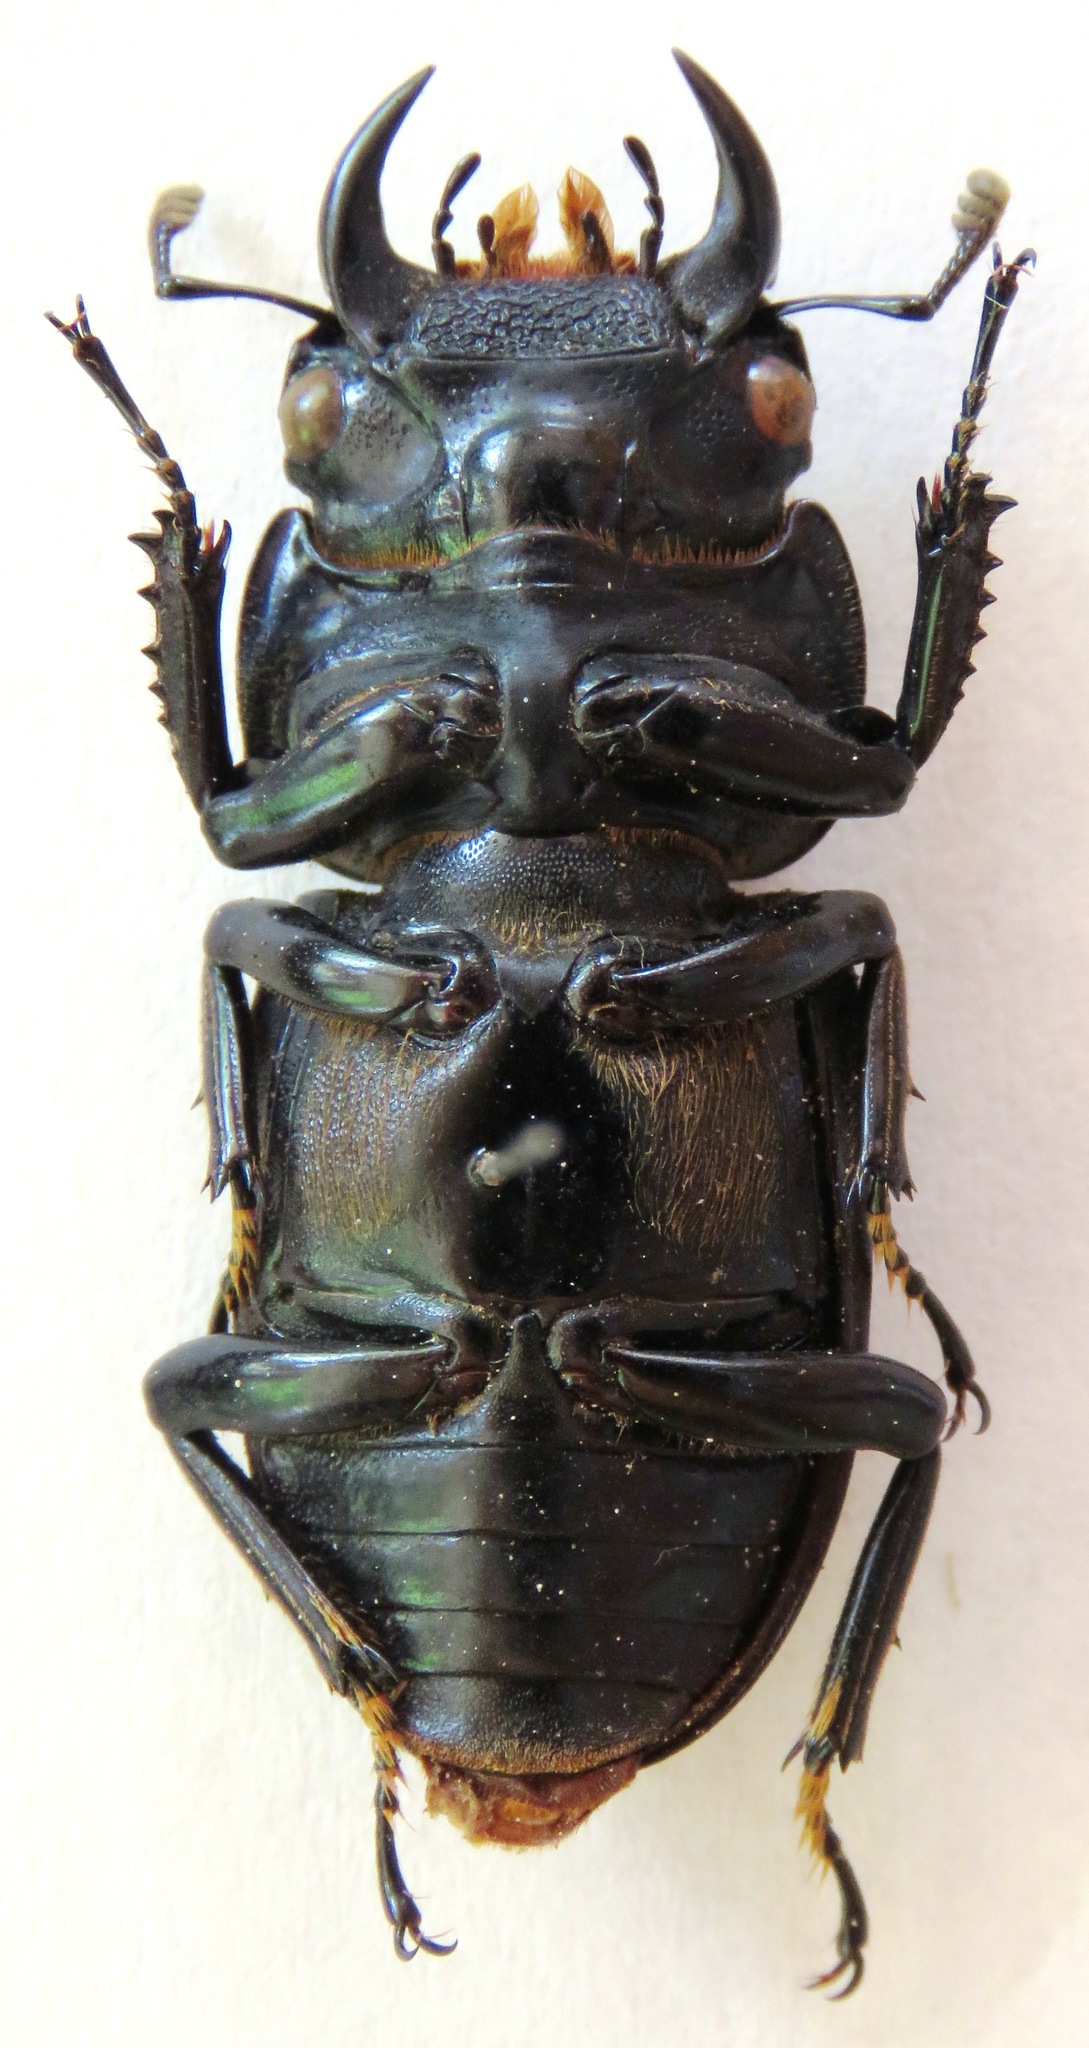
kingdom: Animalia
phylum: Arthropoda
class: Insecta
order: Coleoptera
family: Lucanidae
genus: Dorcus
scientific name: Dorcus yaksha
